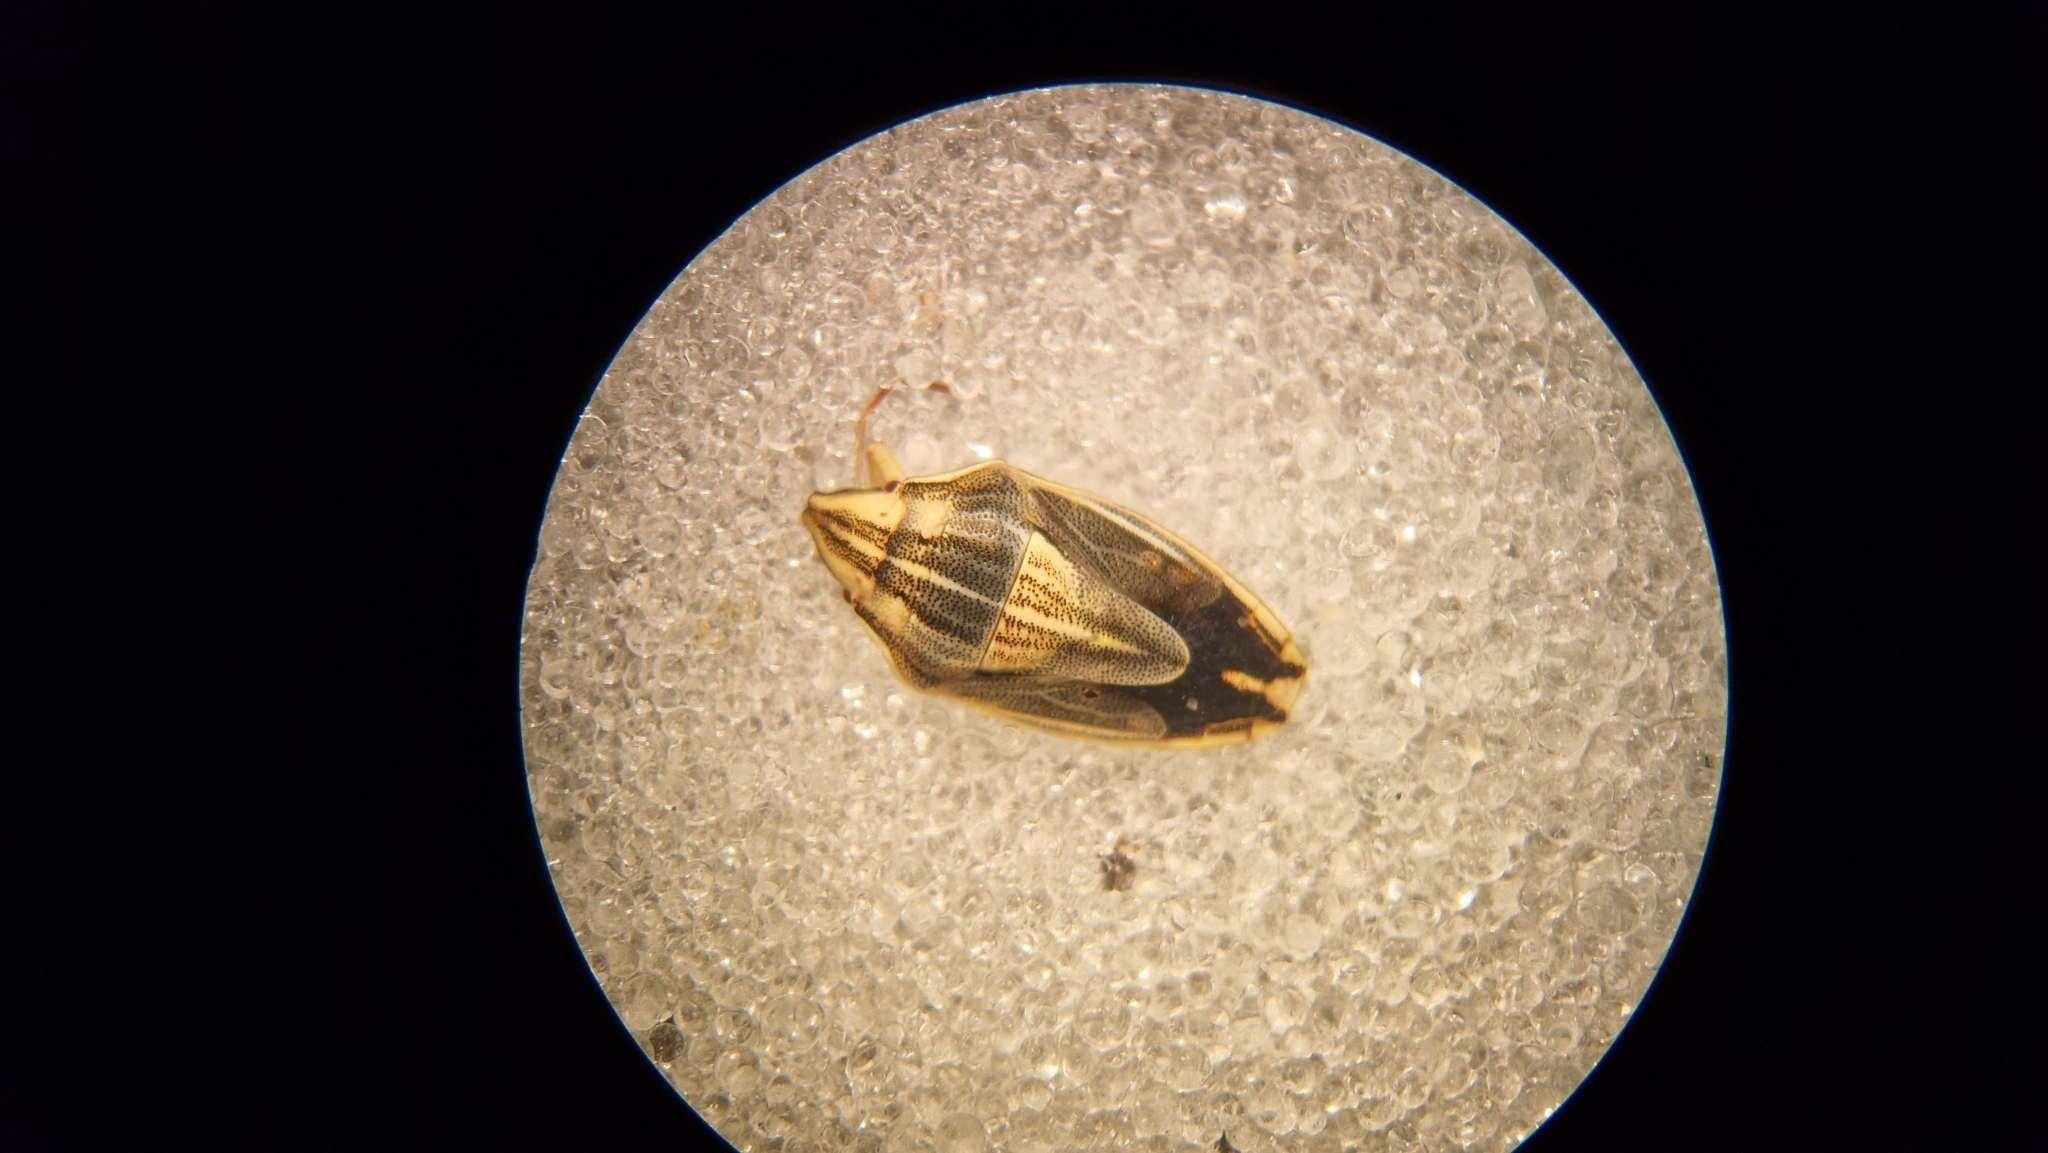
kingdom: Animalia
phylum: Arthropoda
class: Insecta
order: Hemiptera
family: Pentatomidae
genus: Aelia
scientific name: Aelia acuminata
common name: Bishop's mitre
